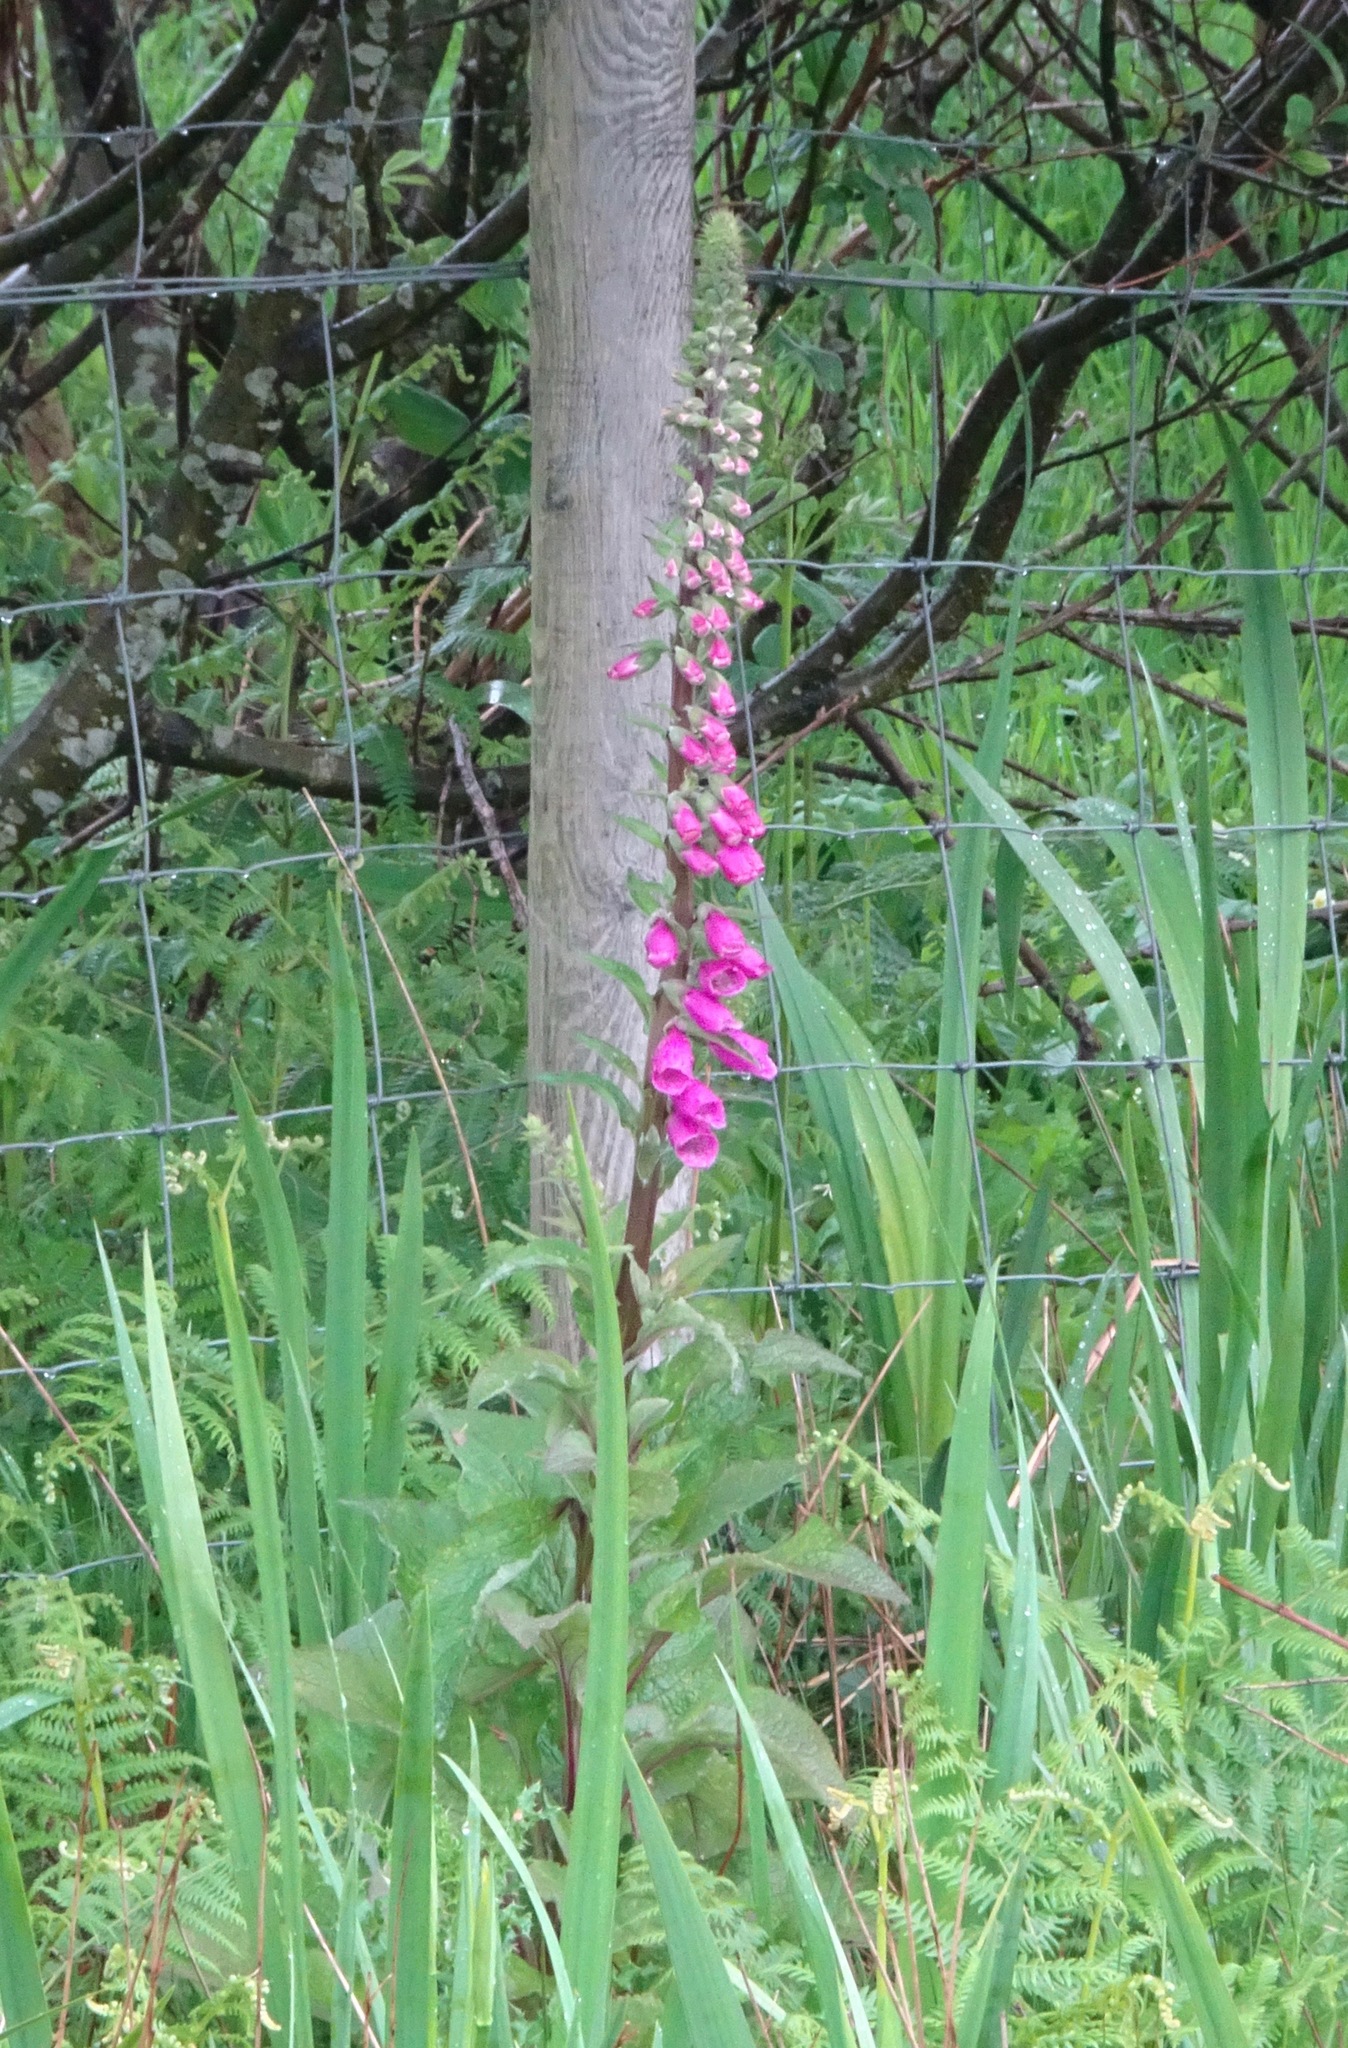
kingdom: Plantae
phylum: Tracheophyta
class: Magnoliopsida
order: Lamiales
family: Plantaginaceae
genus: Digitalis
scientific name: Digitalis purpurea
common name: Foxglove
